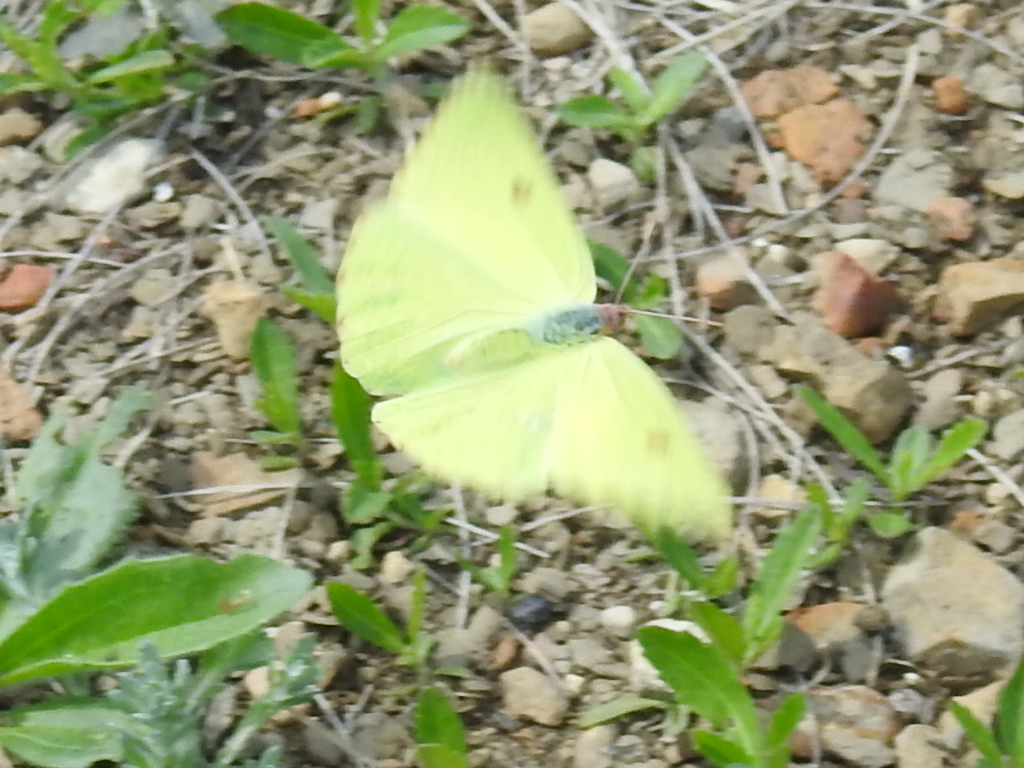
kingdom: Animalia
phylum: Arthropoda
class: Insecta
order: Lepidoptera
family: Pieridae
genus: Phoebis
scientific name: Phoebis sennae
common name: Cloudless sulphur
